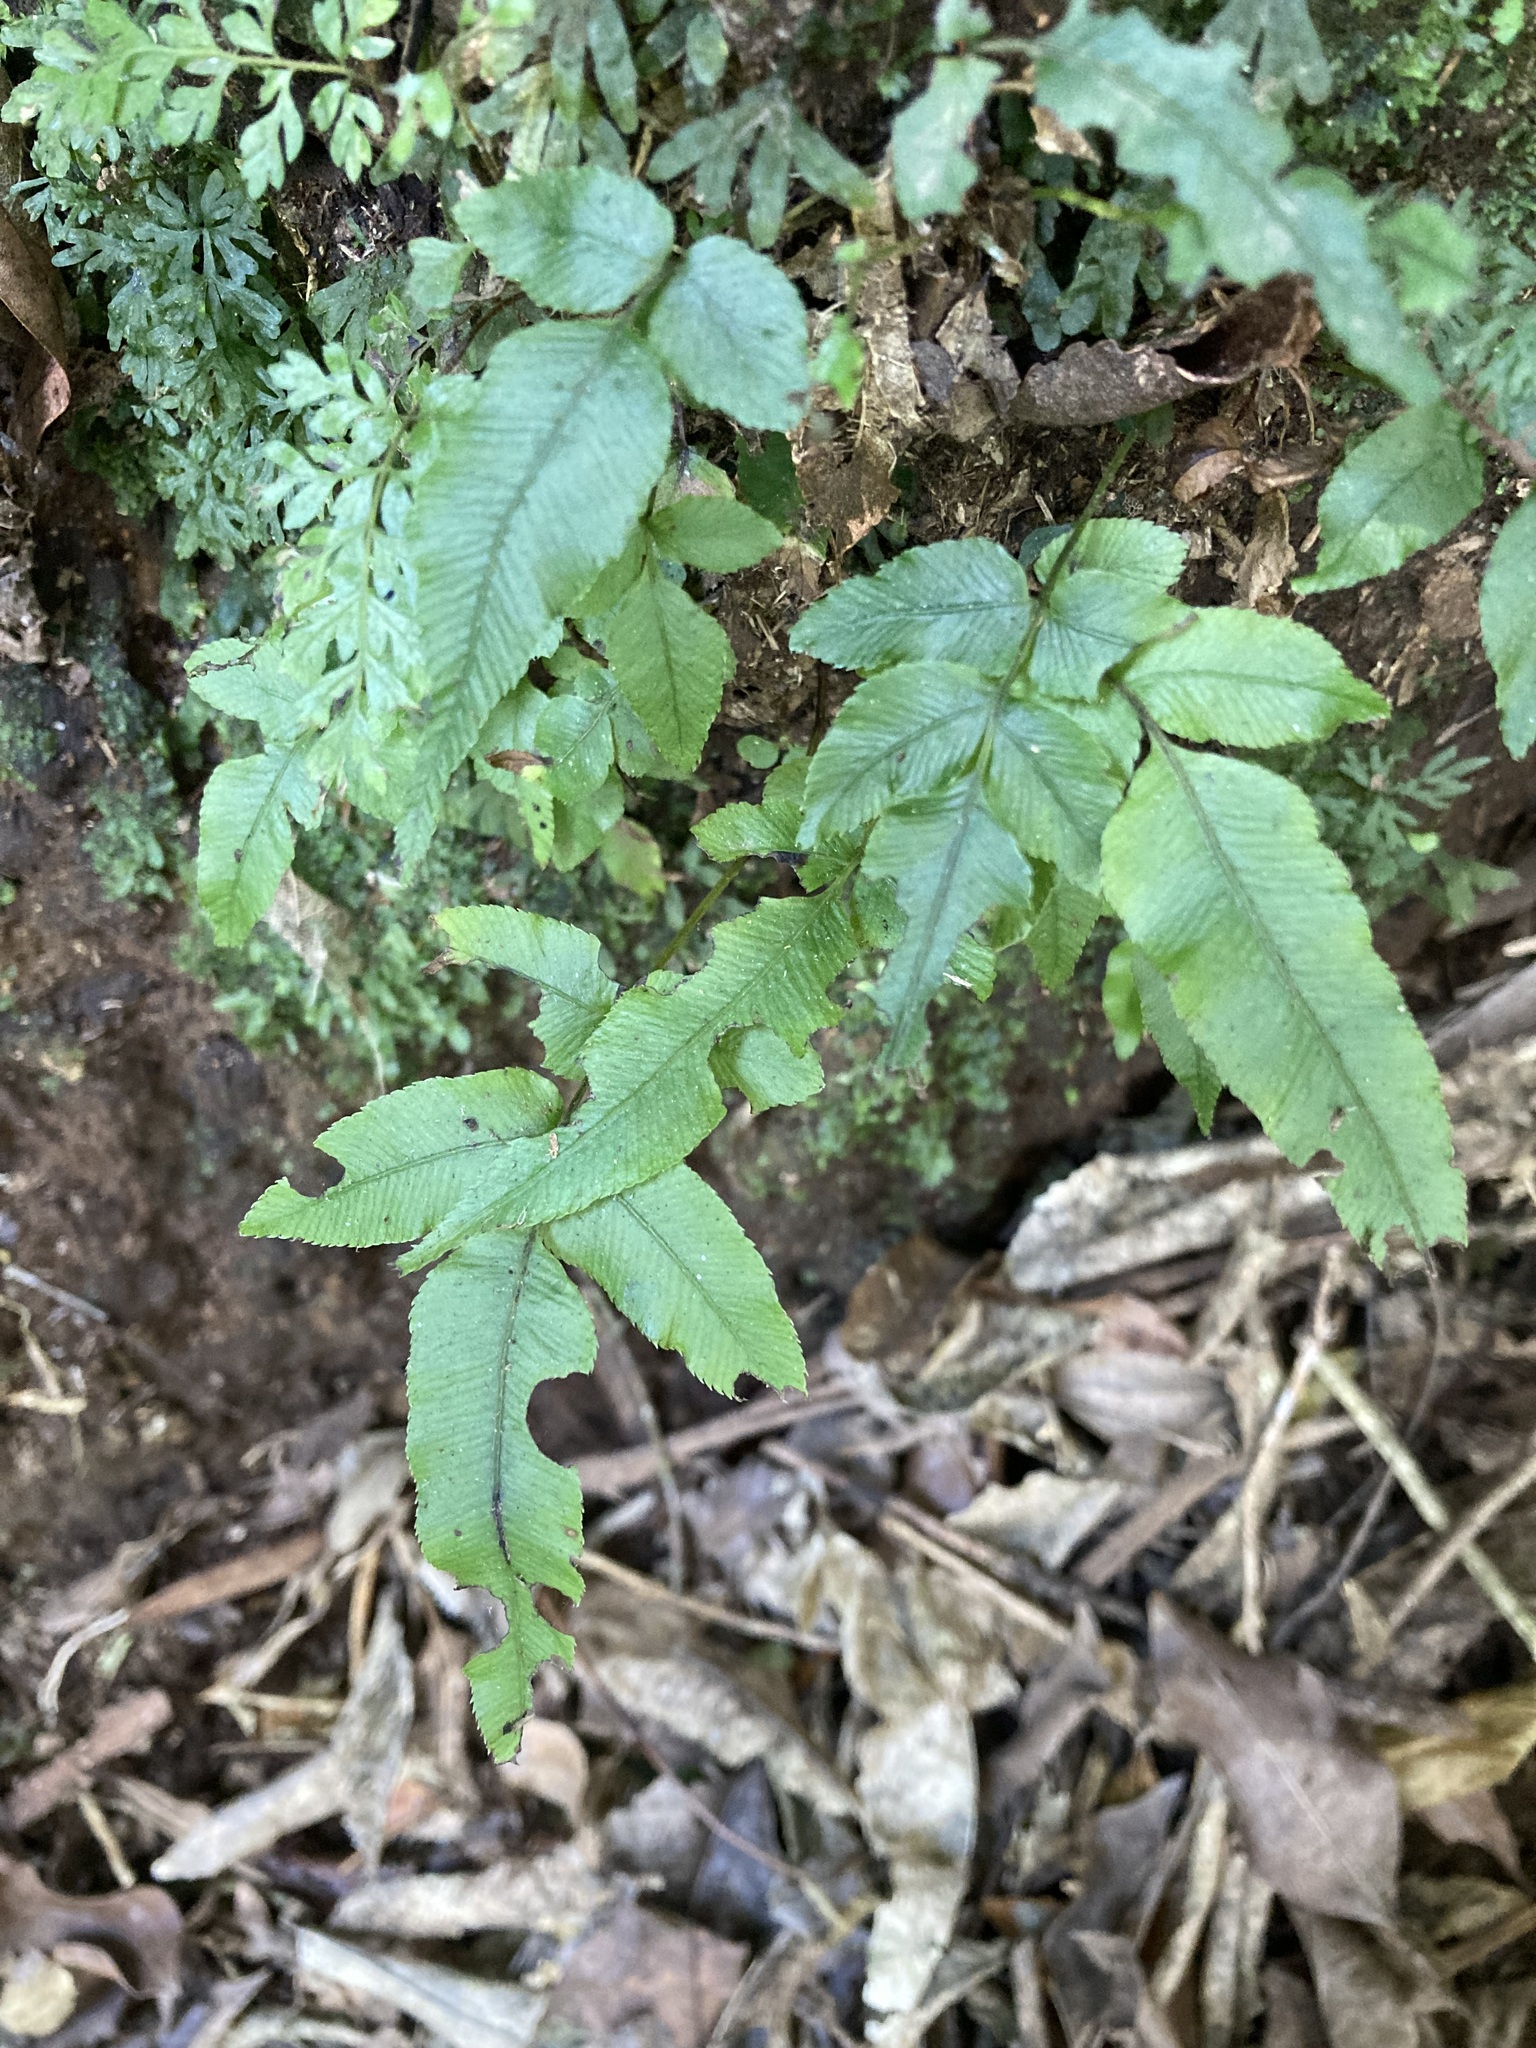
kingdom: Plantae
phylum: Tracheophyta
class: Polypodiopsida
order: Polypodiales
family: Blechnaceae
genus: Parablechnum
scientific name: Parablechnum procerum
